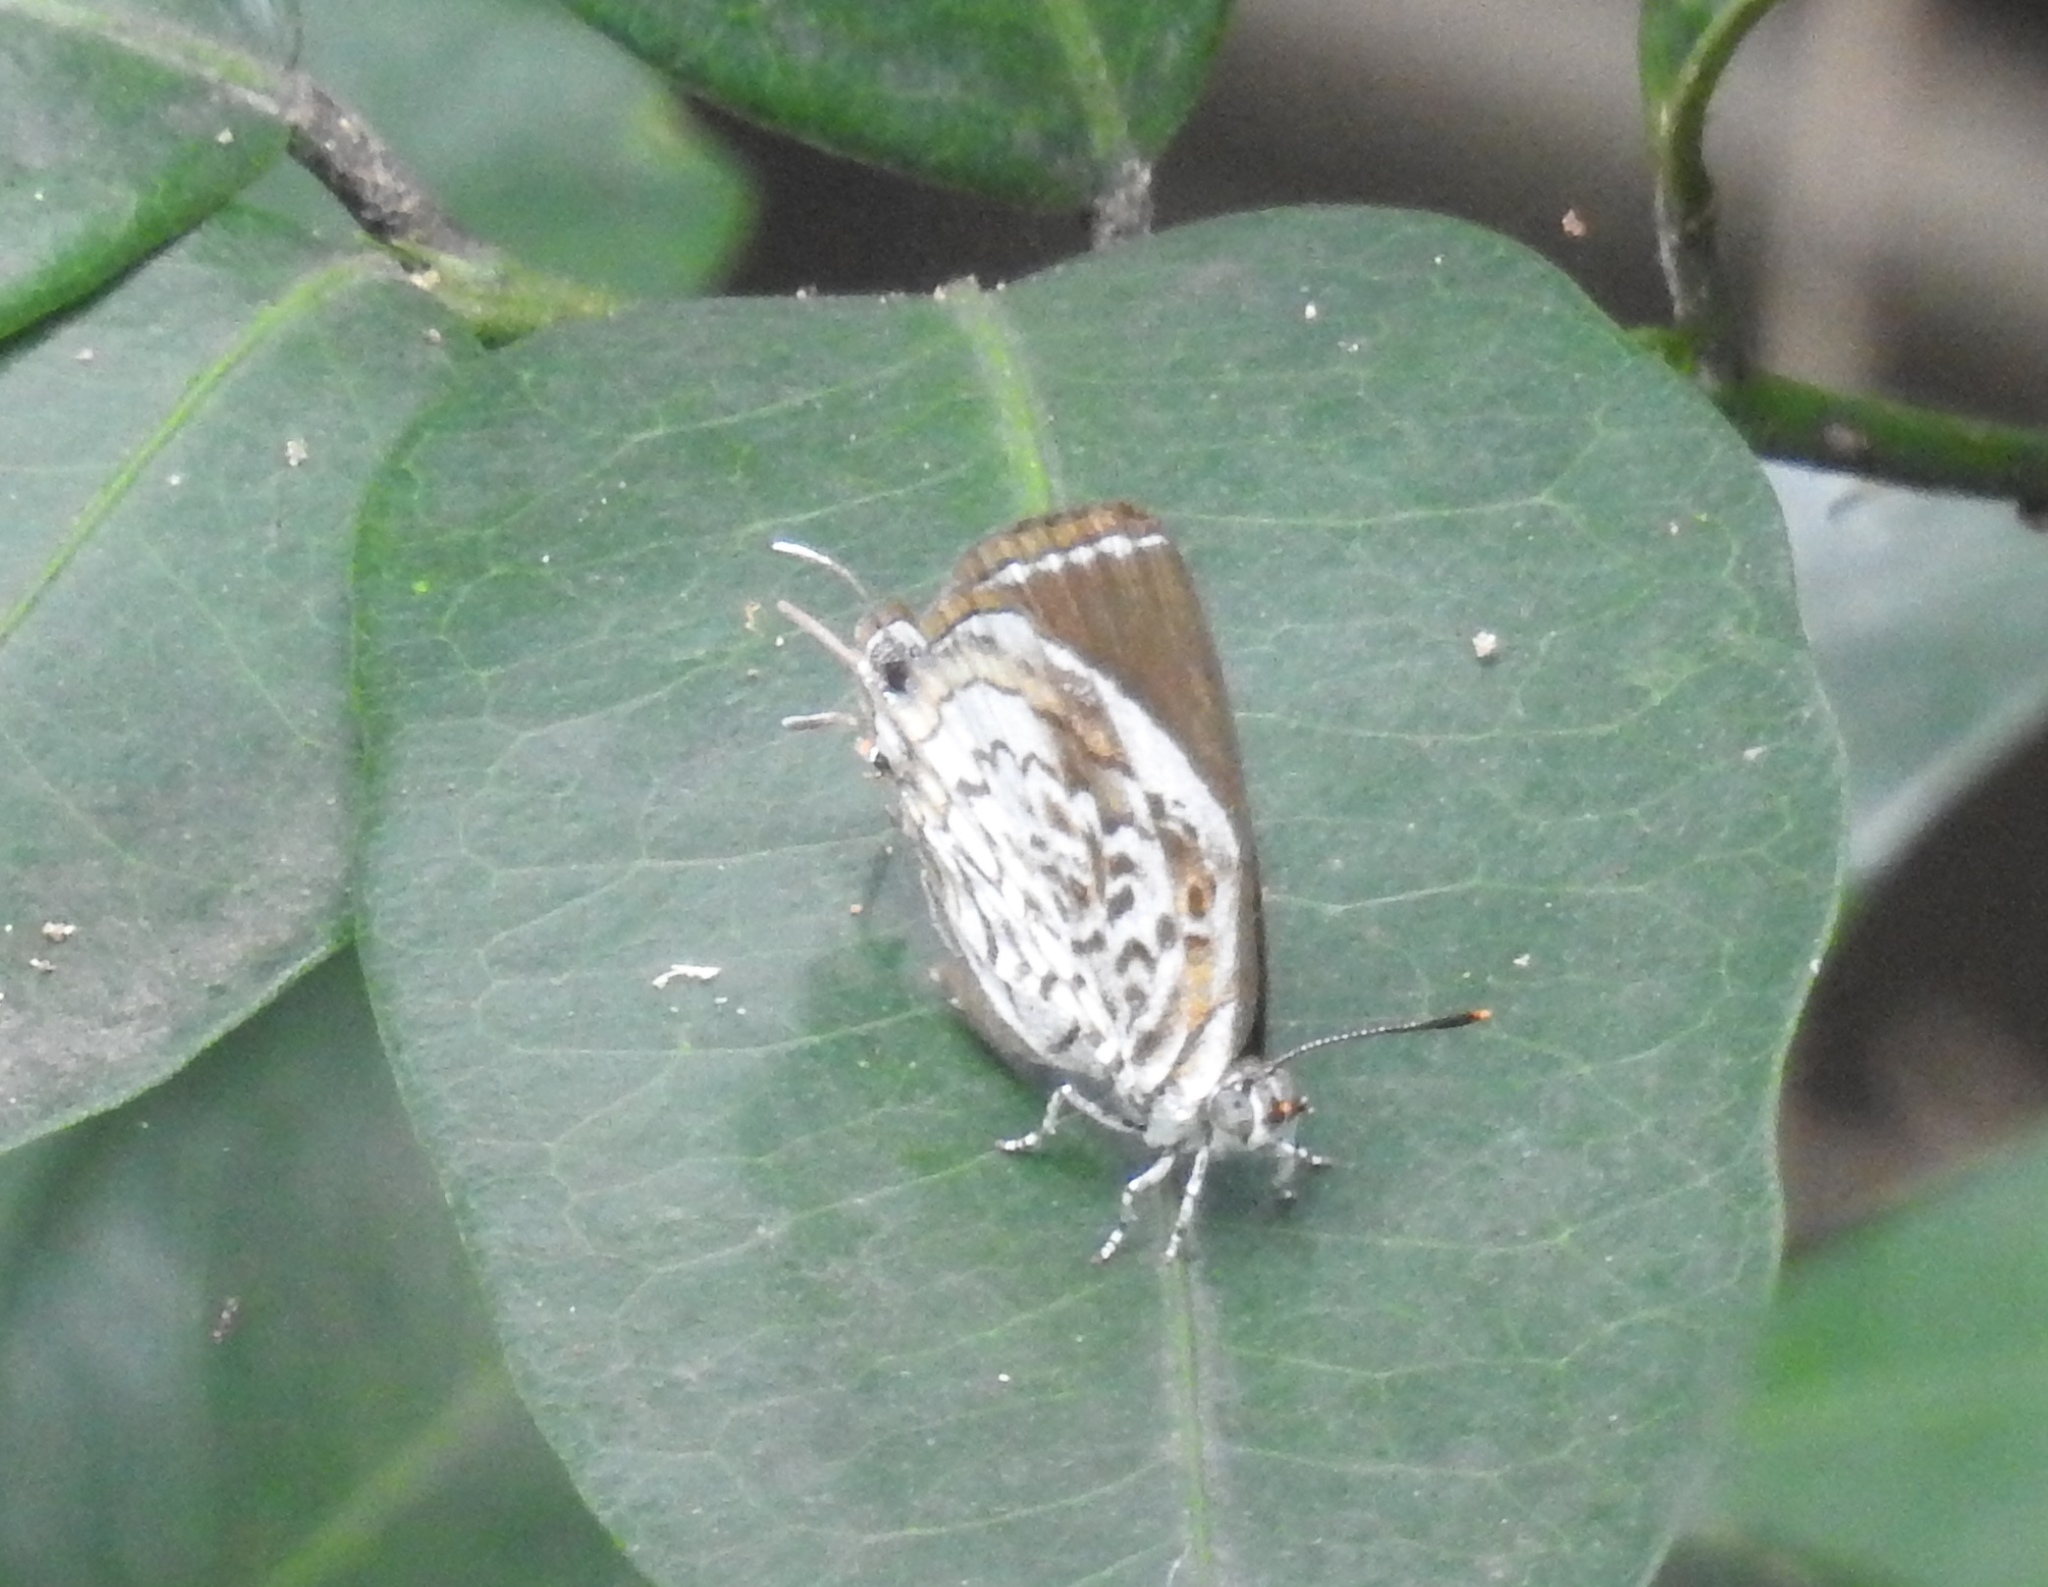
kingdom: Animalia
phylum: Arthropoda
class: Insecta
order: Lepidoptera
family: Lycaenidae
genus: Rathinda
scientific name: Rathinda amor
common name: Monkey puzzle
